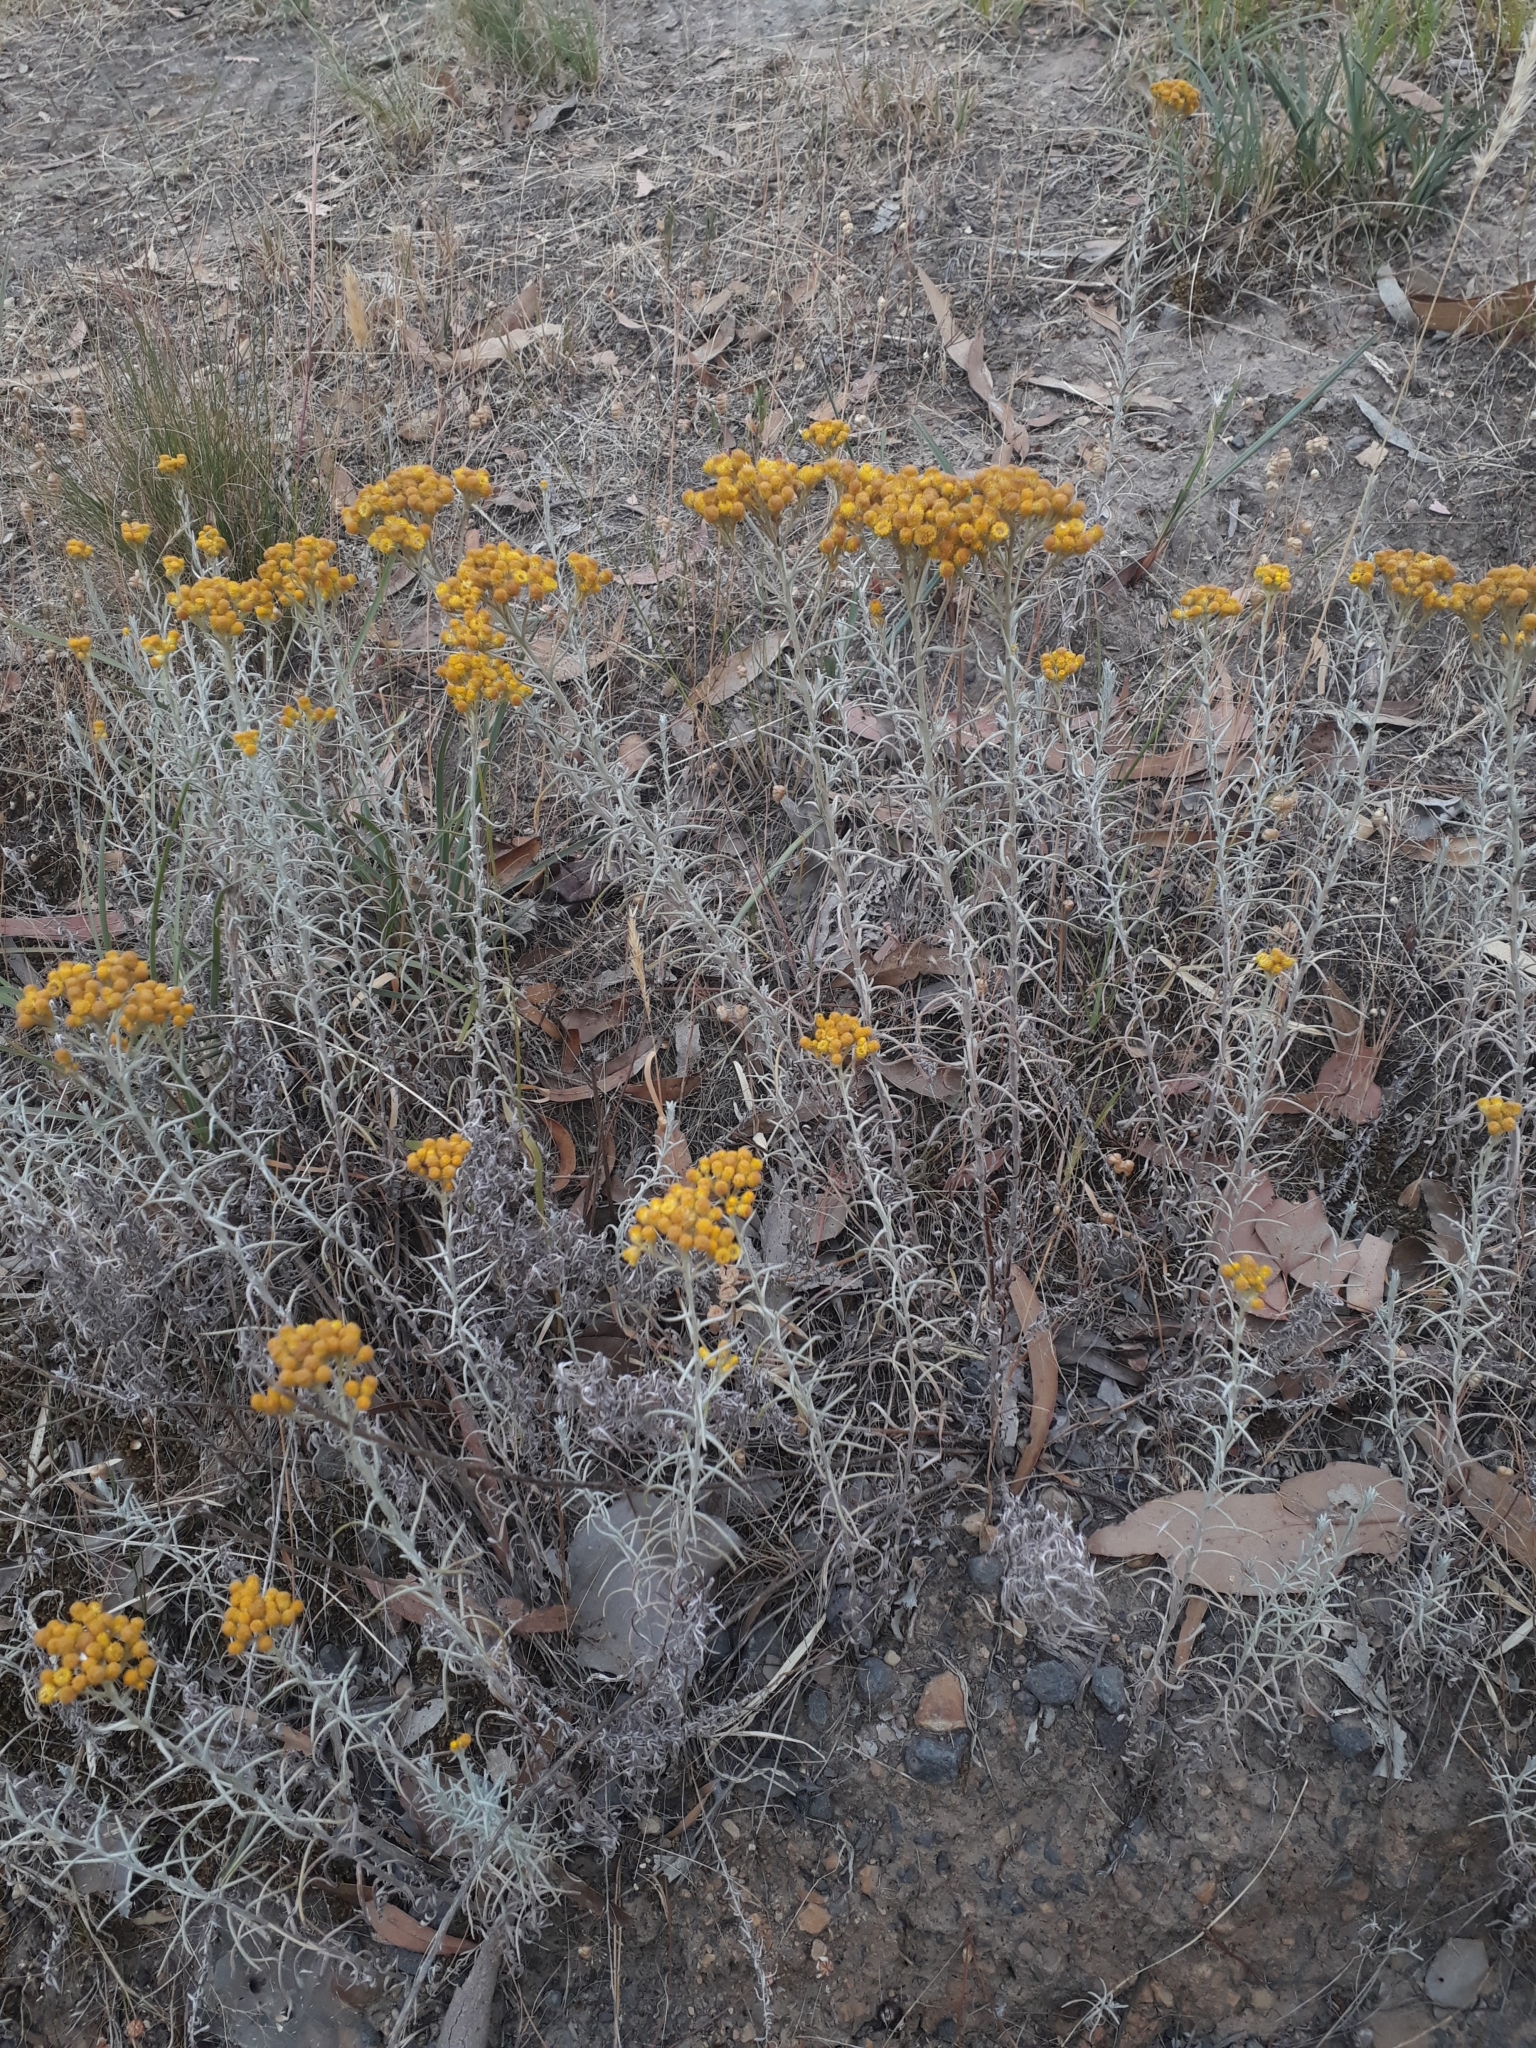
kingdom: Plantae
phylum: Tracheophyta
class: Magnoliopsida
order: Asterales
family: Asteraceae
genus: Chrysocephalum
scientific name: Chrysocephalum semipapposum
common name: Clustered everlasting
